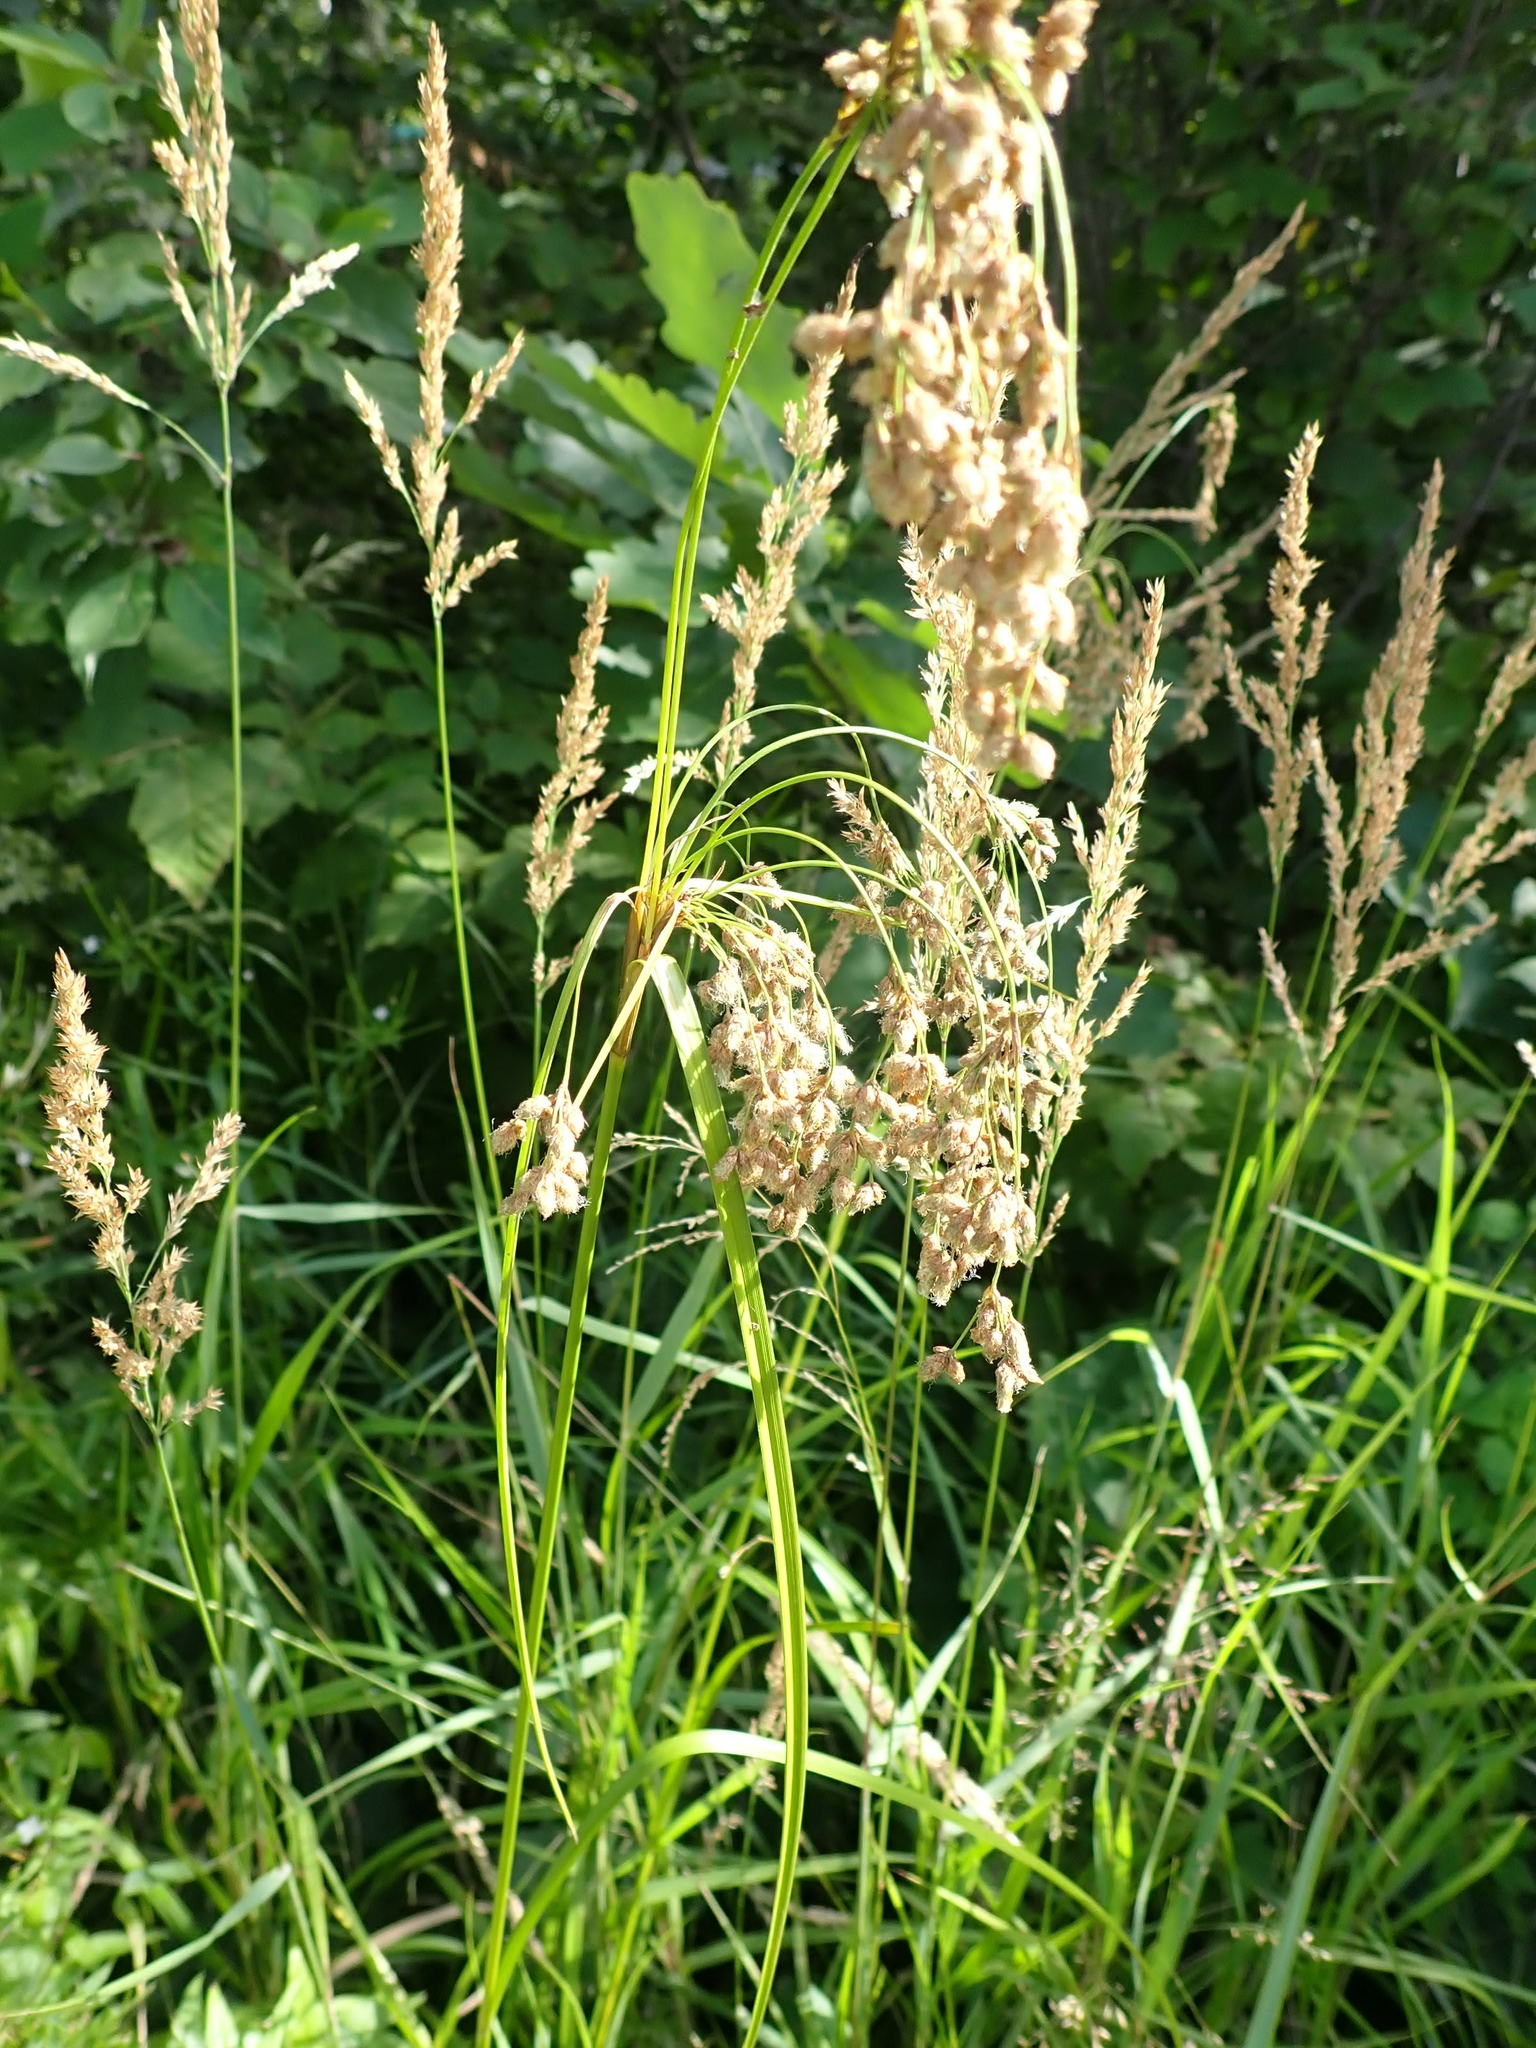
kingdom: Plantae
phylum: Tracheophyta
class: Liliopsida
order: Poales
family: Cyperaceae
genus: Scirpus
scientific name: Scirpus cyperinus
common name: Black-sheathed bulrush
